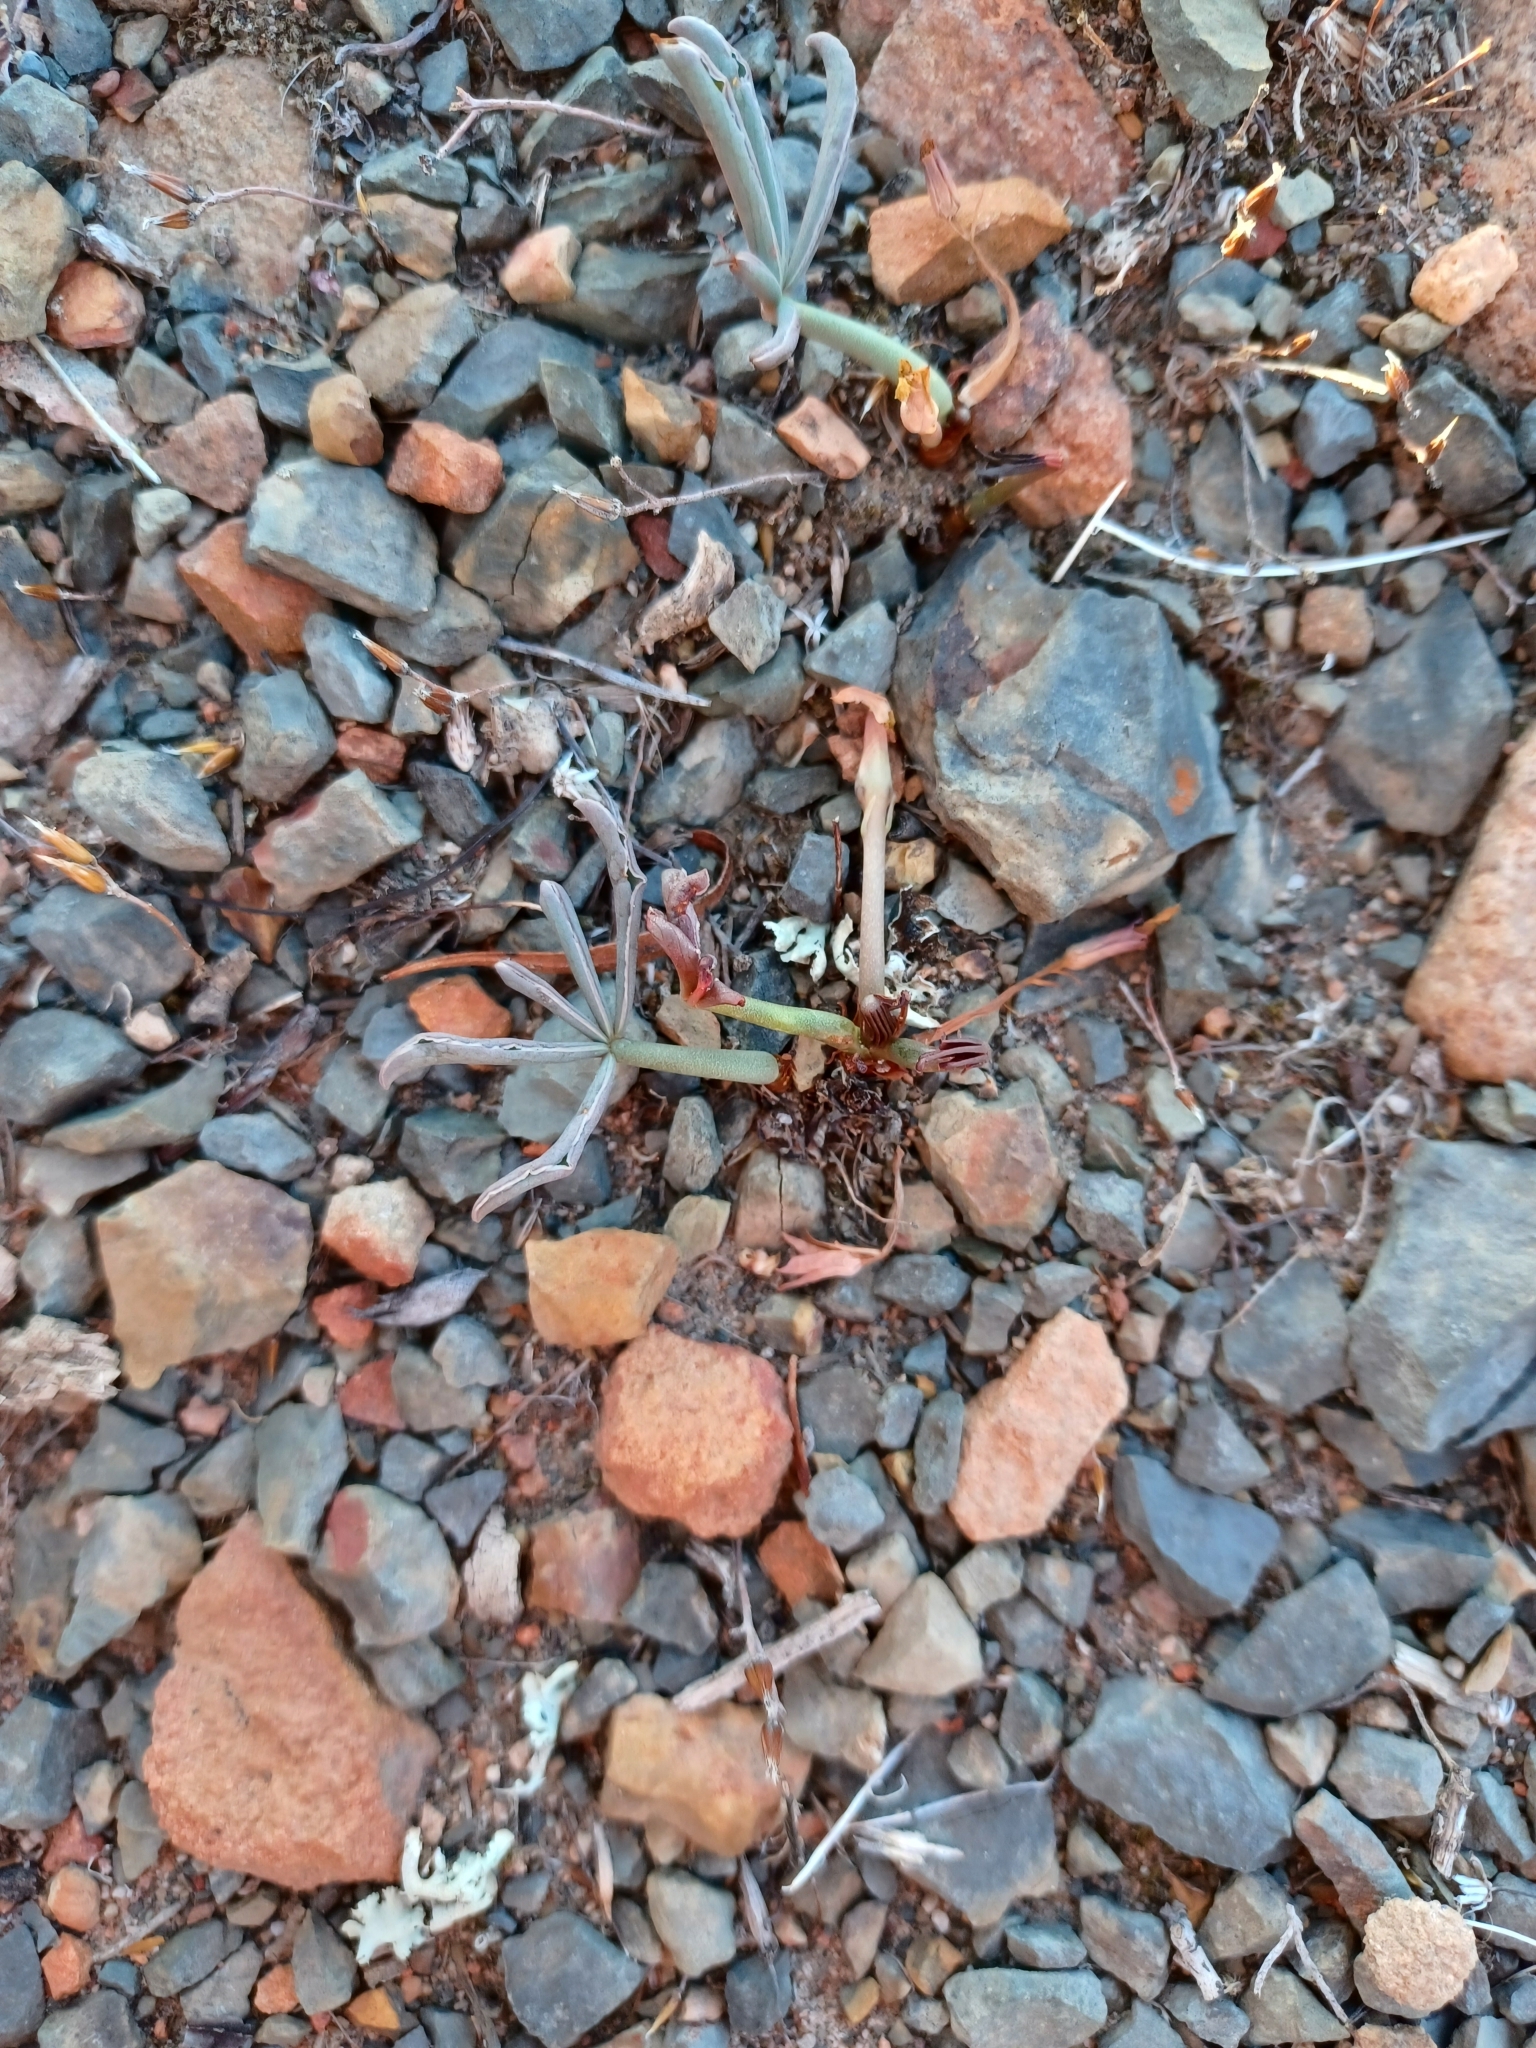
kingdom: Plantae
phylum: Tracheophyta
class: Magnoliopsida
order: Oxalidales
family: Oxalidaceae
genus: Oxalis
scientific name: Oxalis flava
